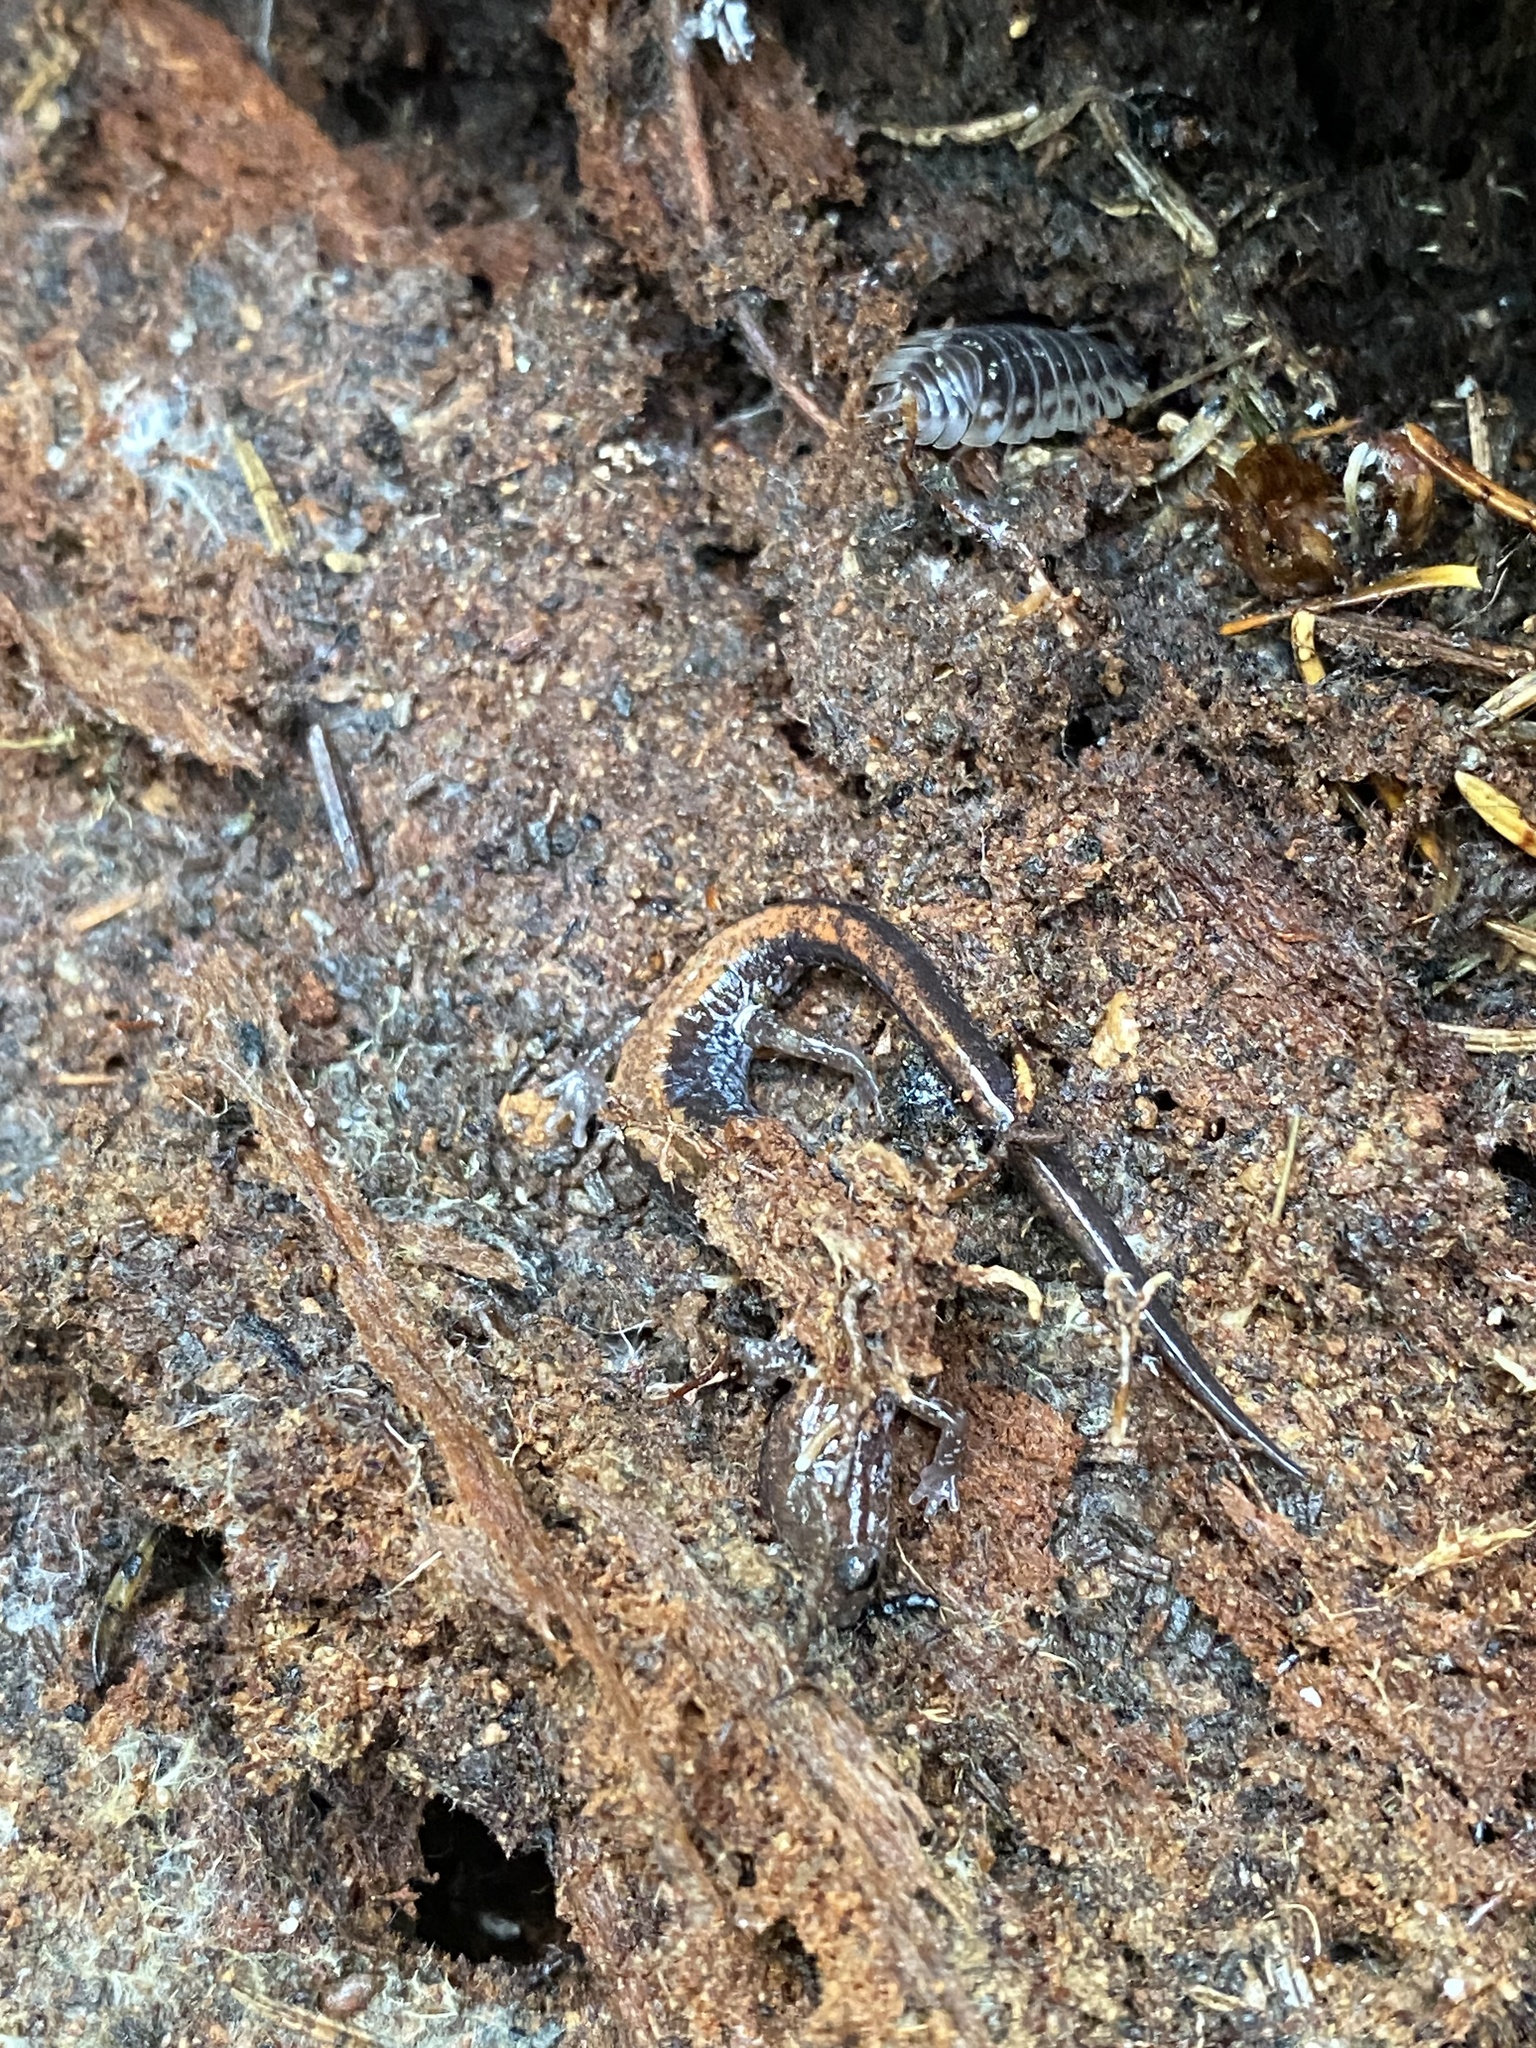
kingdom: Animalia
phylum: Chordata
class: Amphibia
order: Caudata
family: Plethodontidae
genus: Plethodon
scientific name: Plethodon cinereus
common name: Redback salamander
